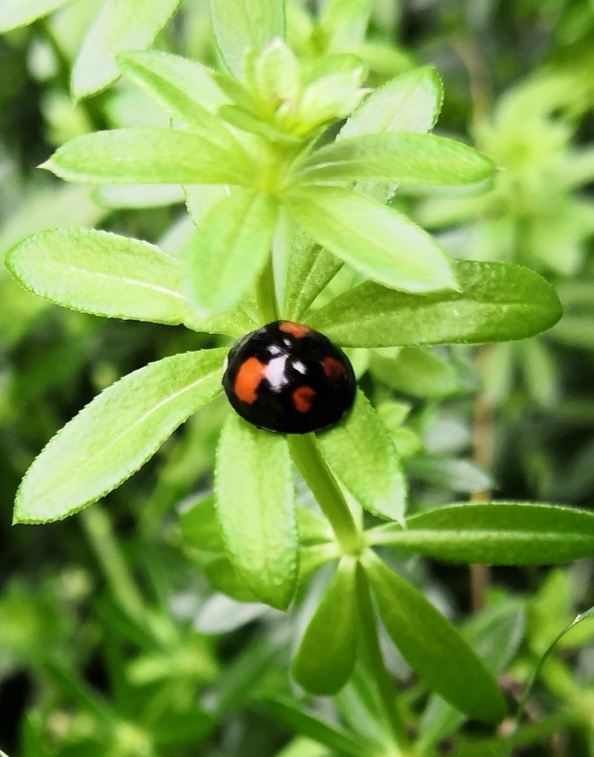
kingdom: Animalia
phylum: Arthropoda
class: Insecta
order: Coleoptera
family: Coccinellidae
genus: Harmonia
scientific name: Harmonia axyridis
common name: Harlequin ladybird
